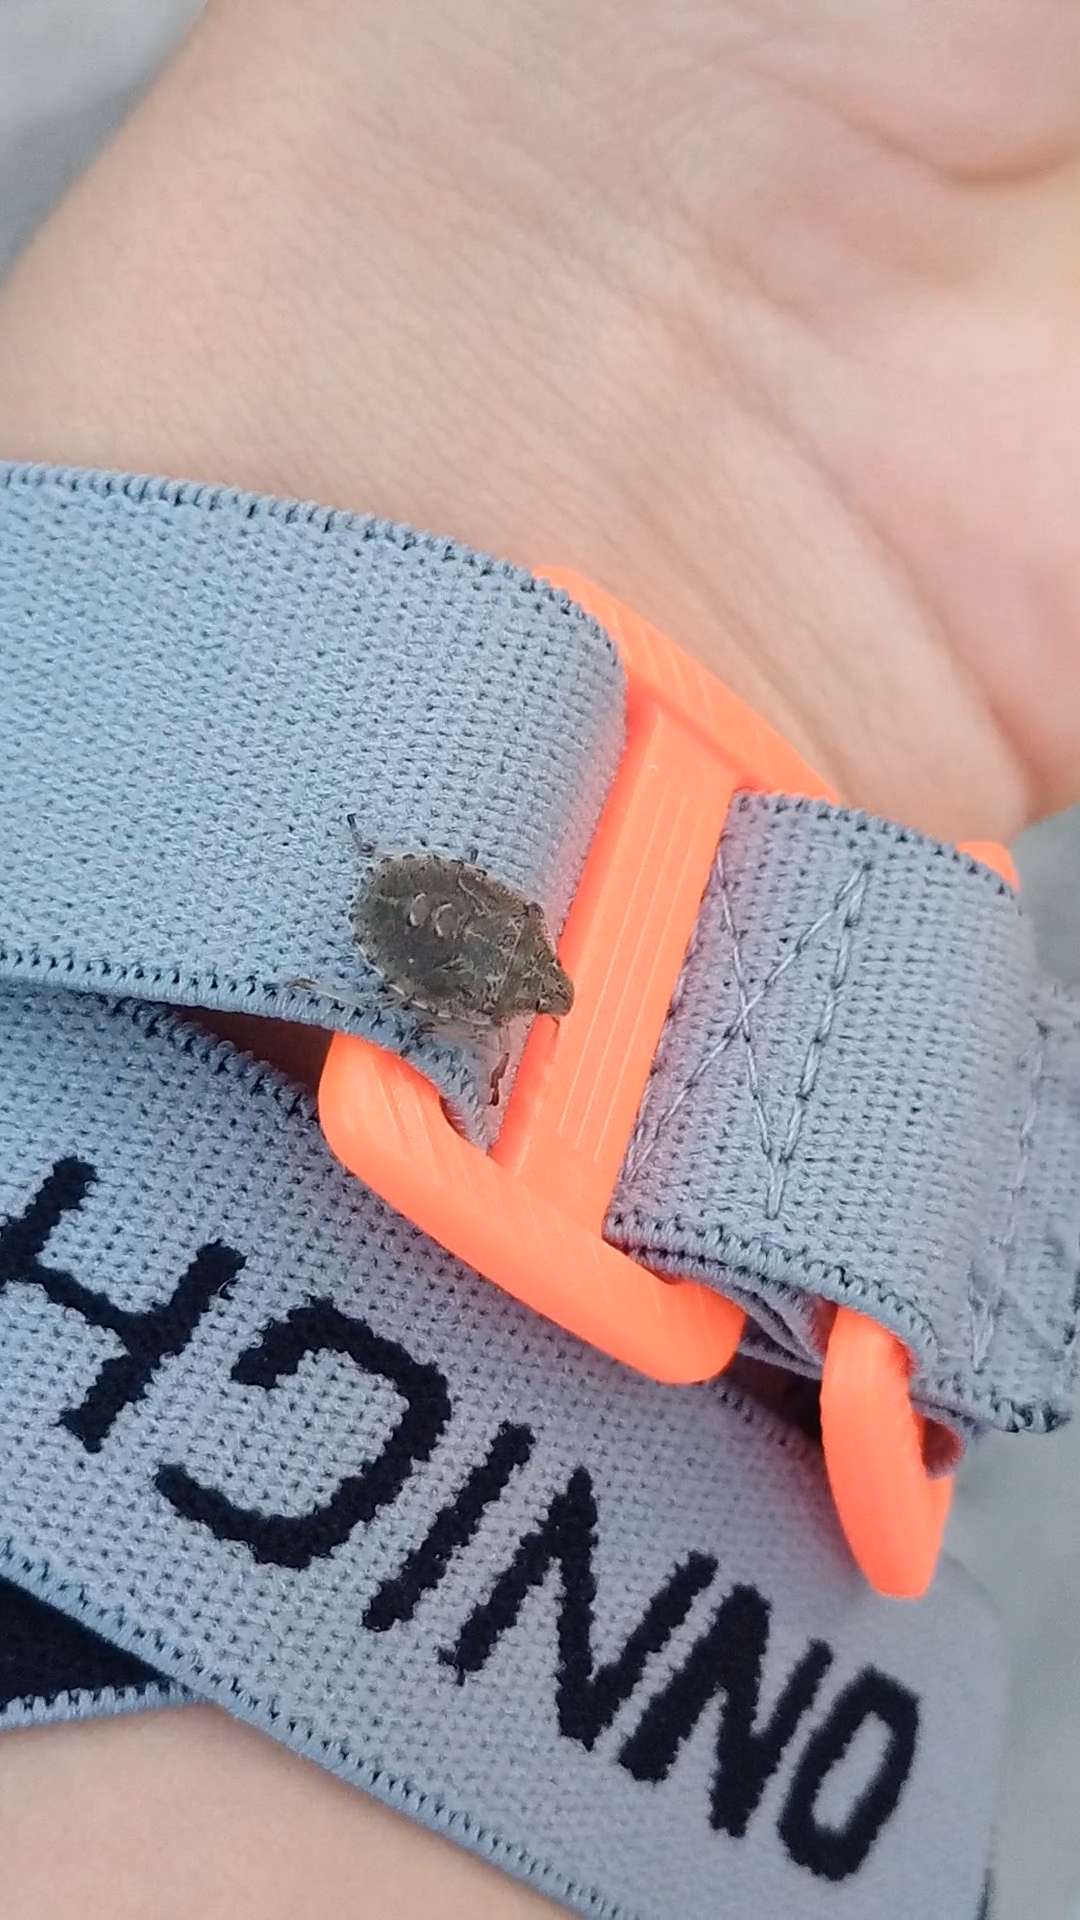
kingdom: Animalia
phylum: Arthropoda
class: Insecta
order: Hemiptera
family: Pentatomidae
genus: Rhaphigaster
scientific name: Rhaphigaster nebulosa
